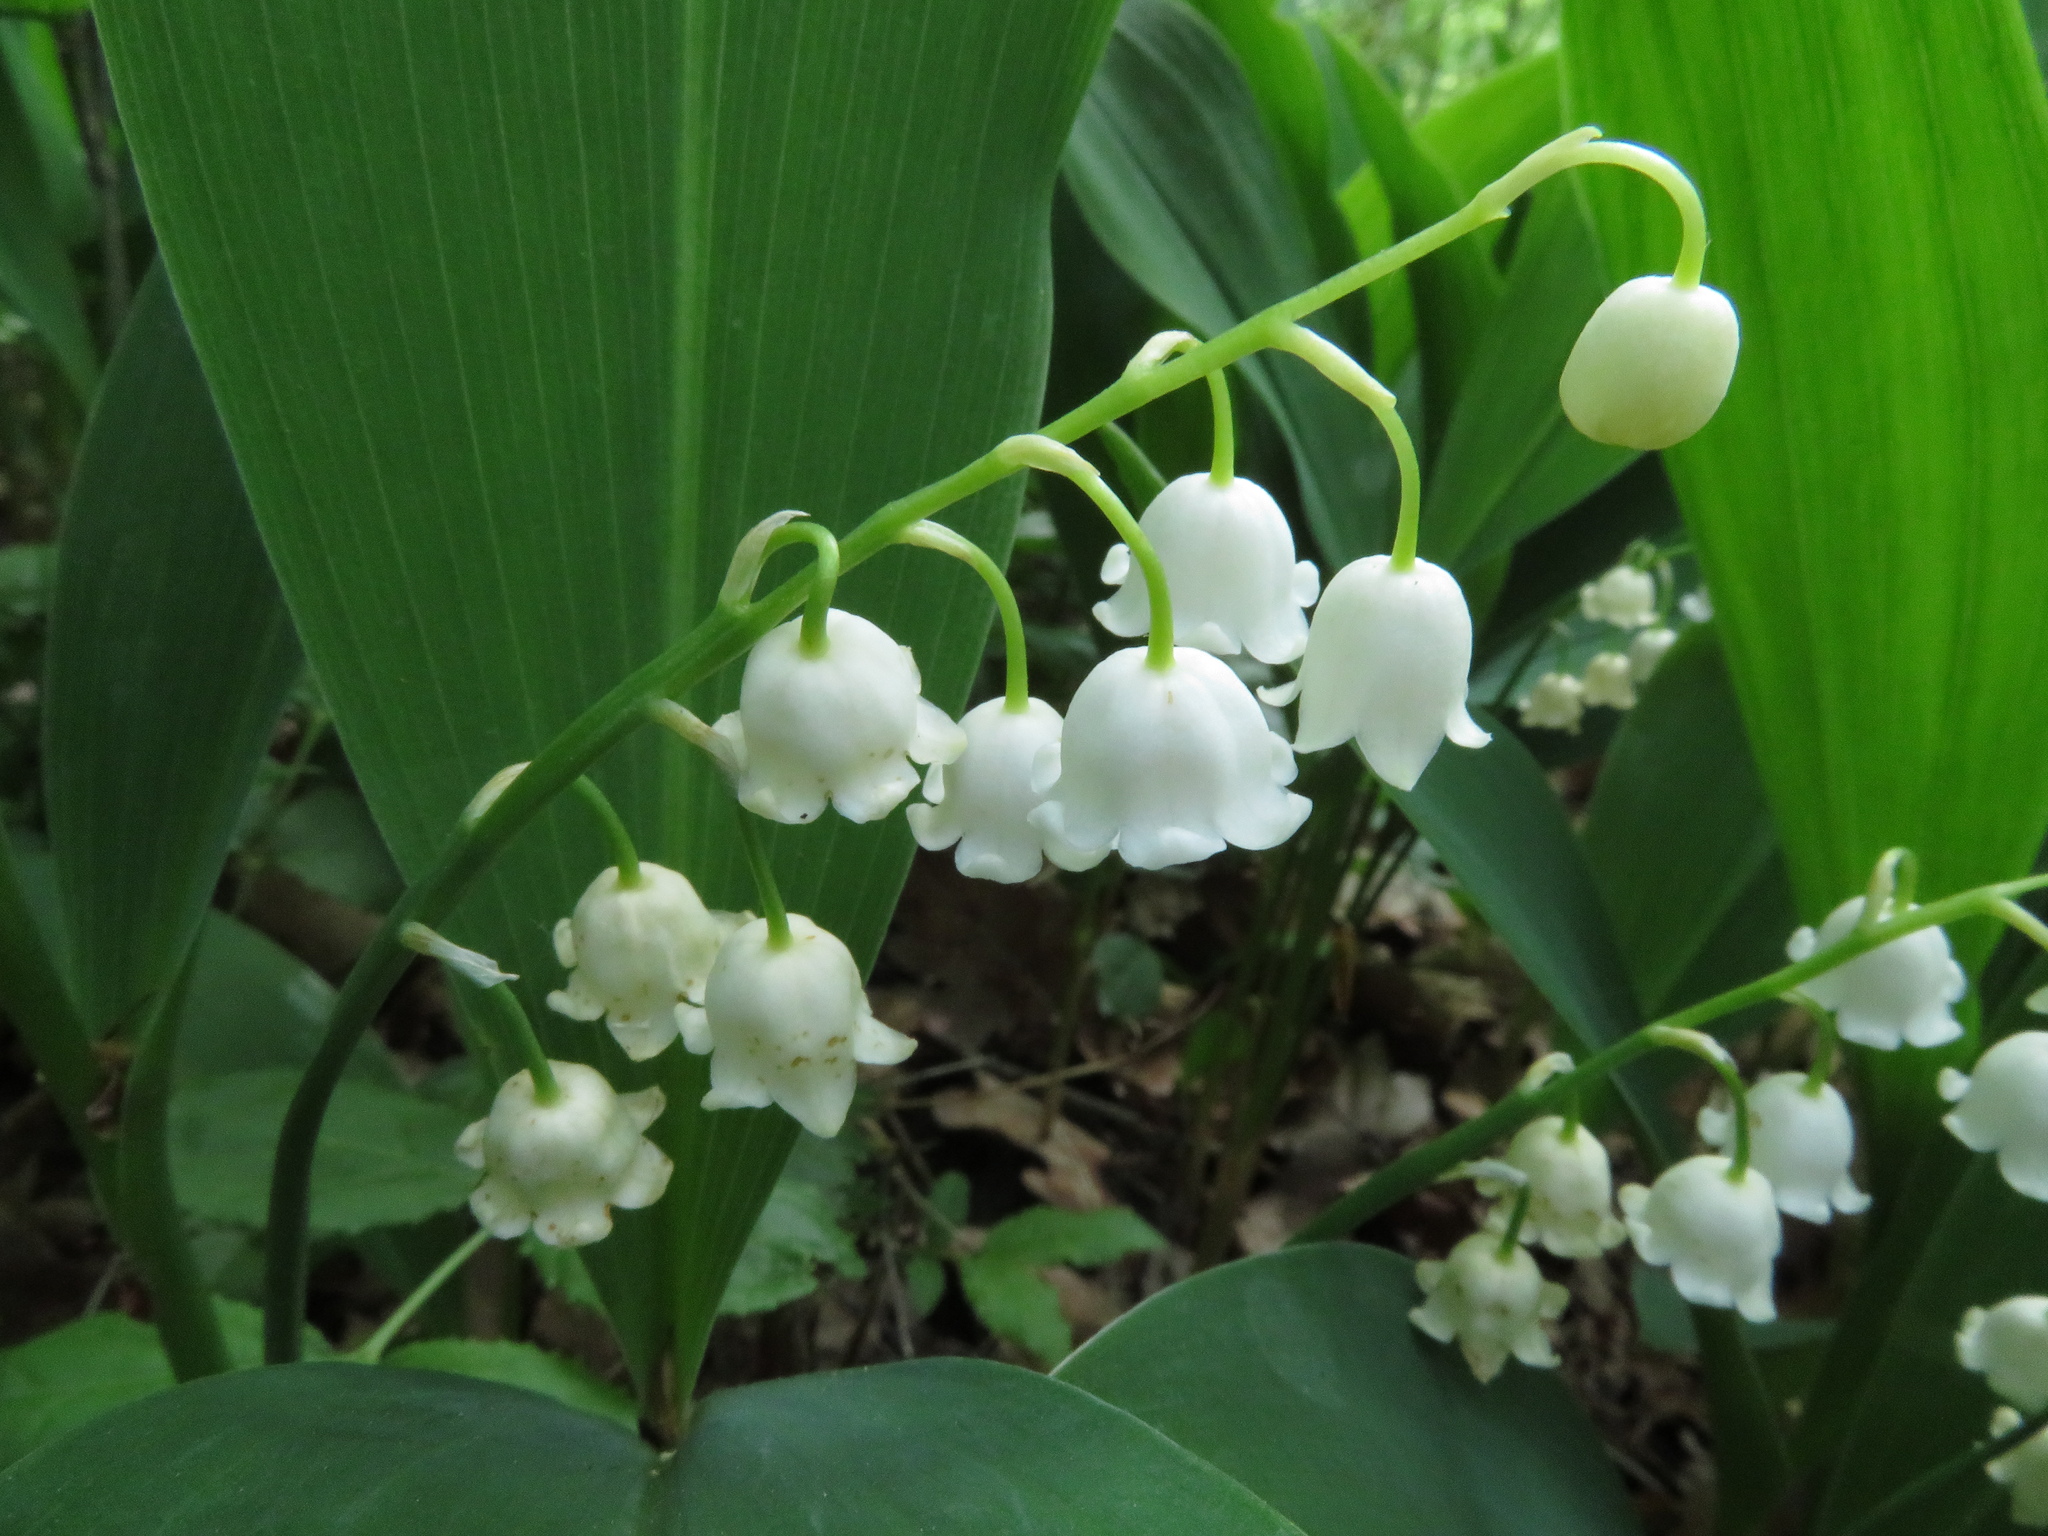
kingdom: Plantae
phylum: Tracheophyta
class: Liliopsida
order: Asparagales
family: Asparagaceae
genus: Convallaria
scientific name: Convallaria majalis
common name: Lily-of-the-valley
